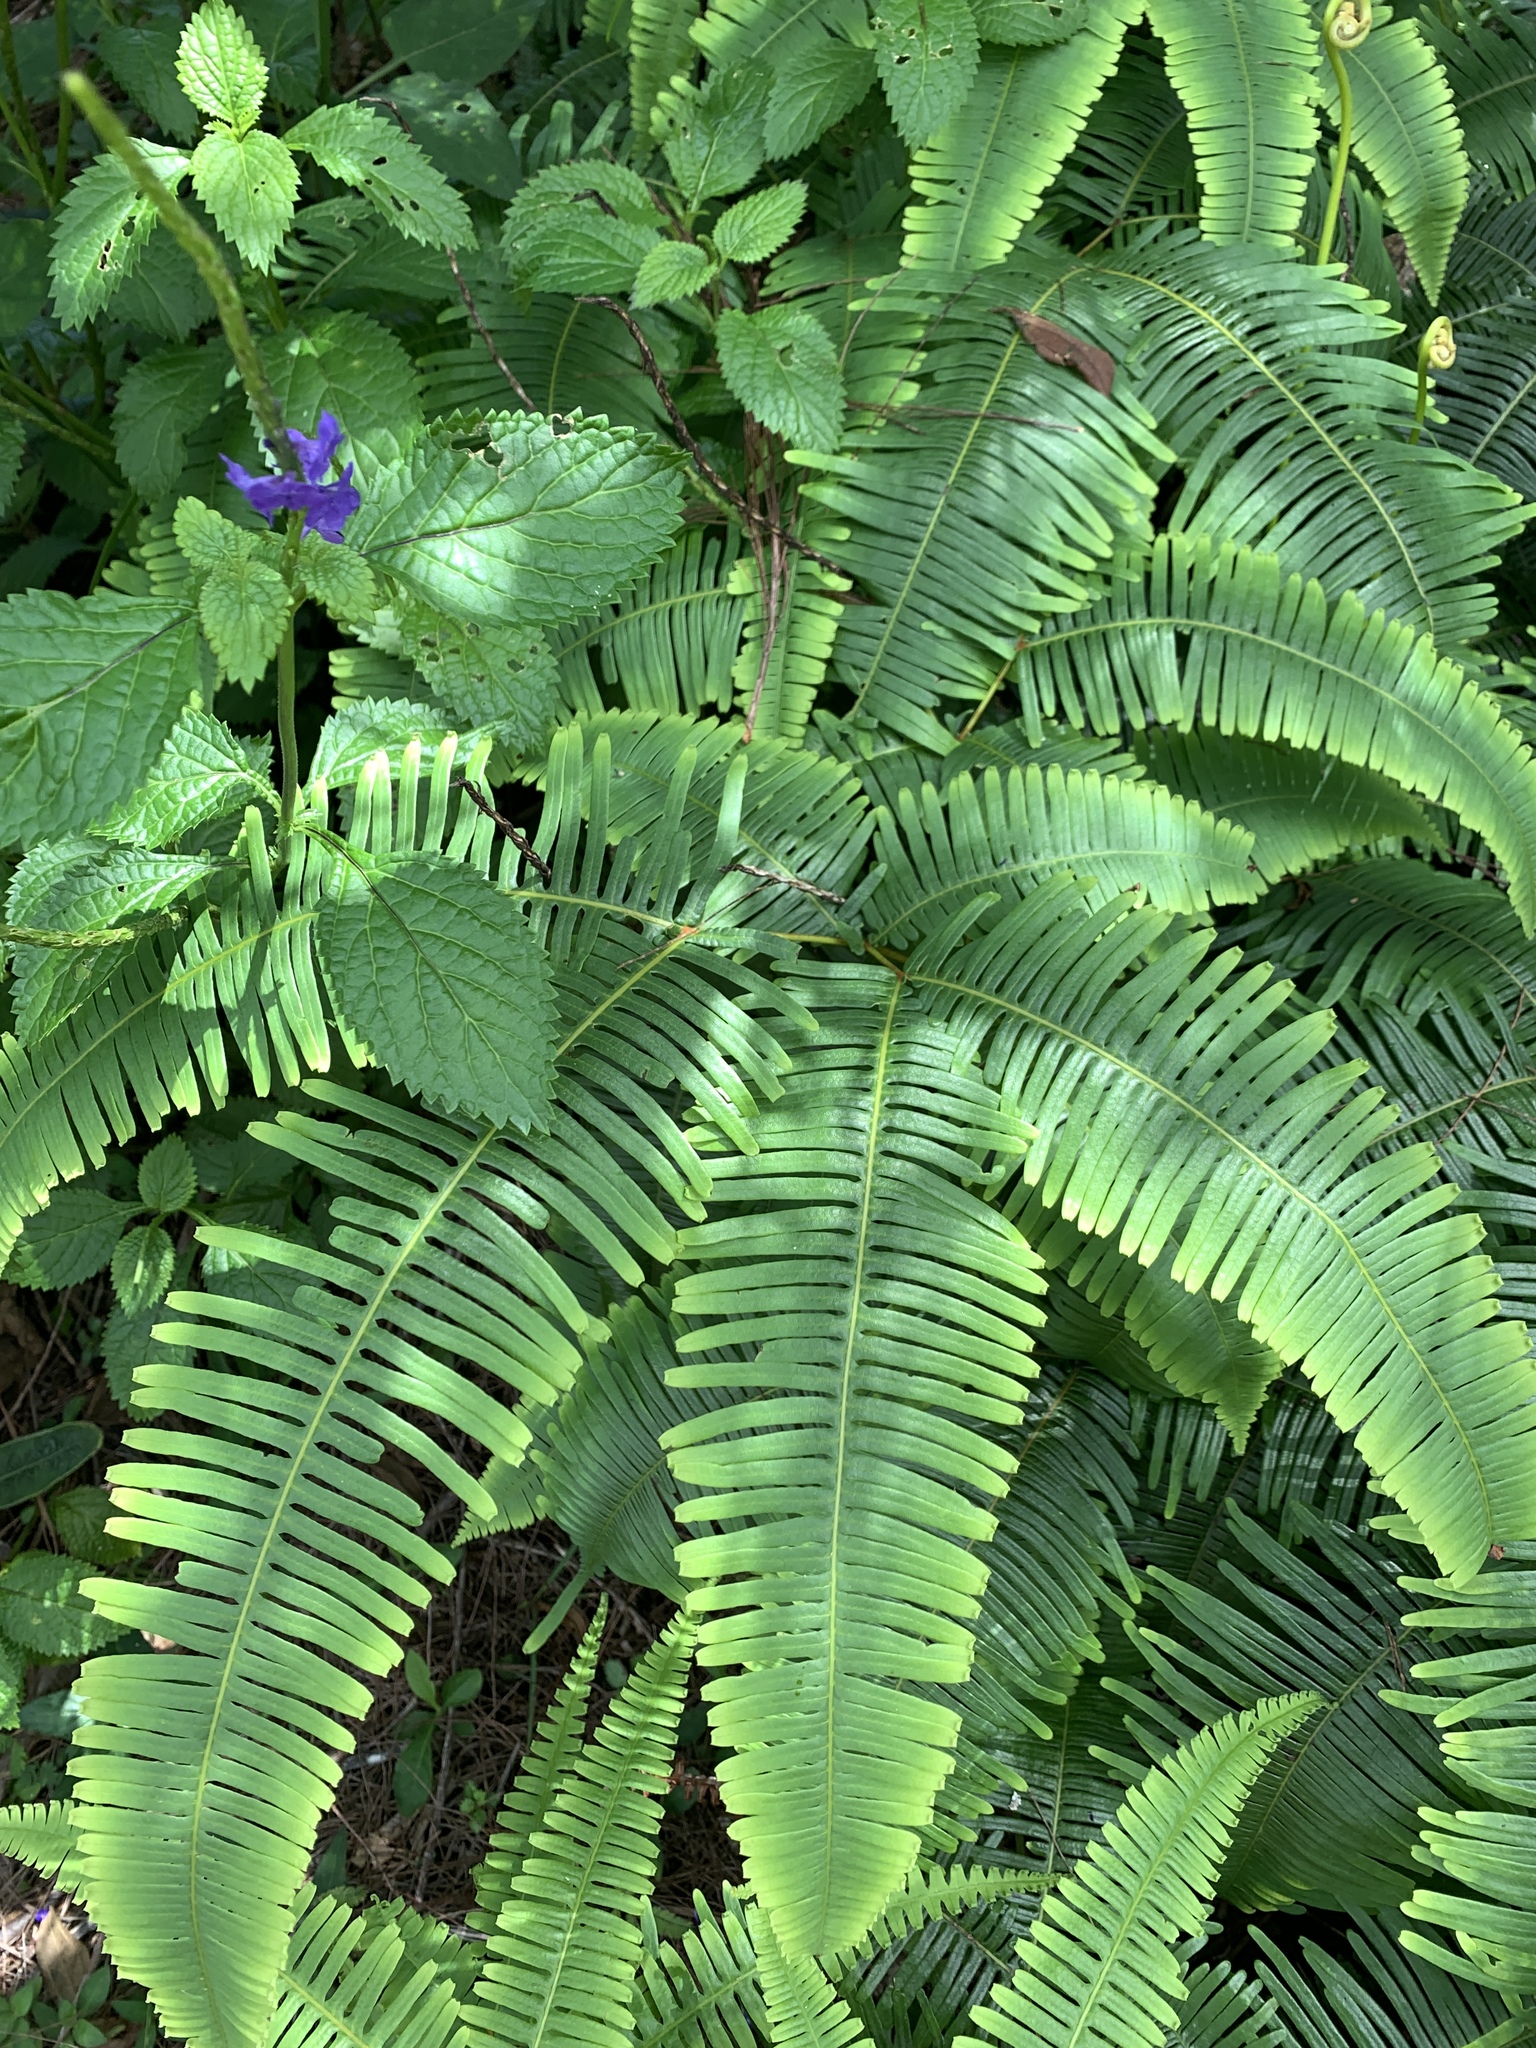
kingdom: Plantae
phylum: Tracheophyta
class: Polypodiopsida
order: Gleicheniales
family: Gleicheniaceae
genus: Dicranopteris
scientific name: Dicranopteris linearis
